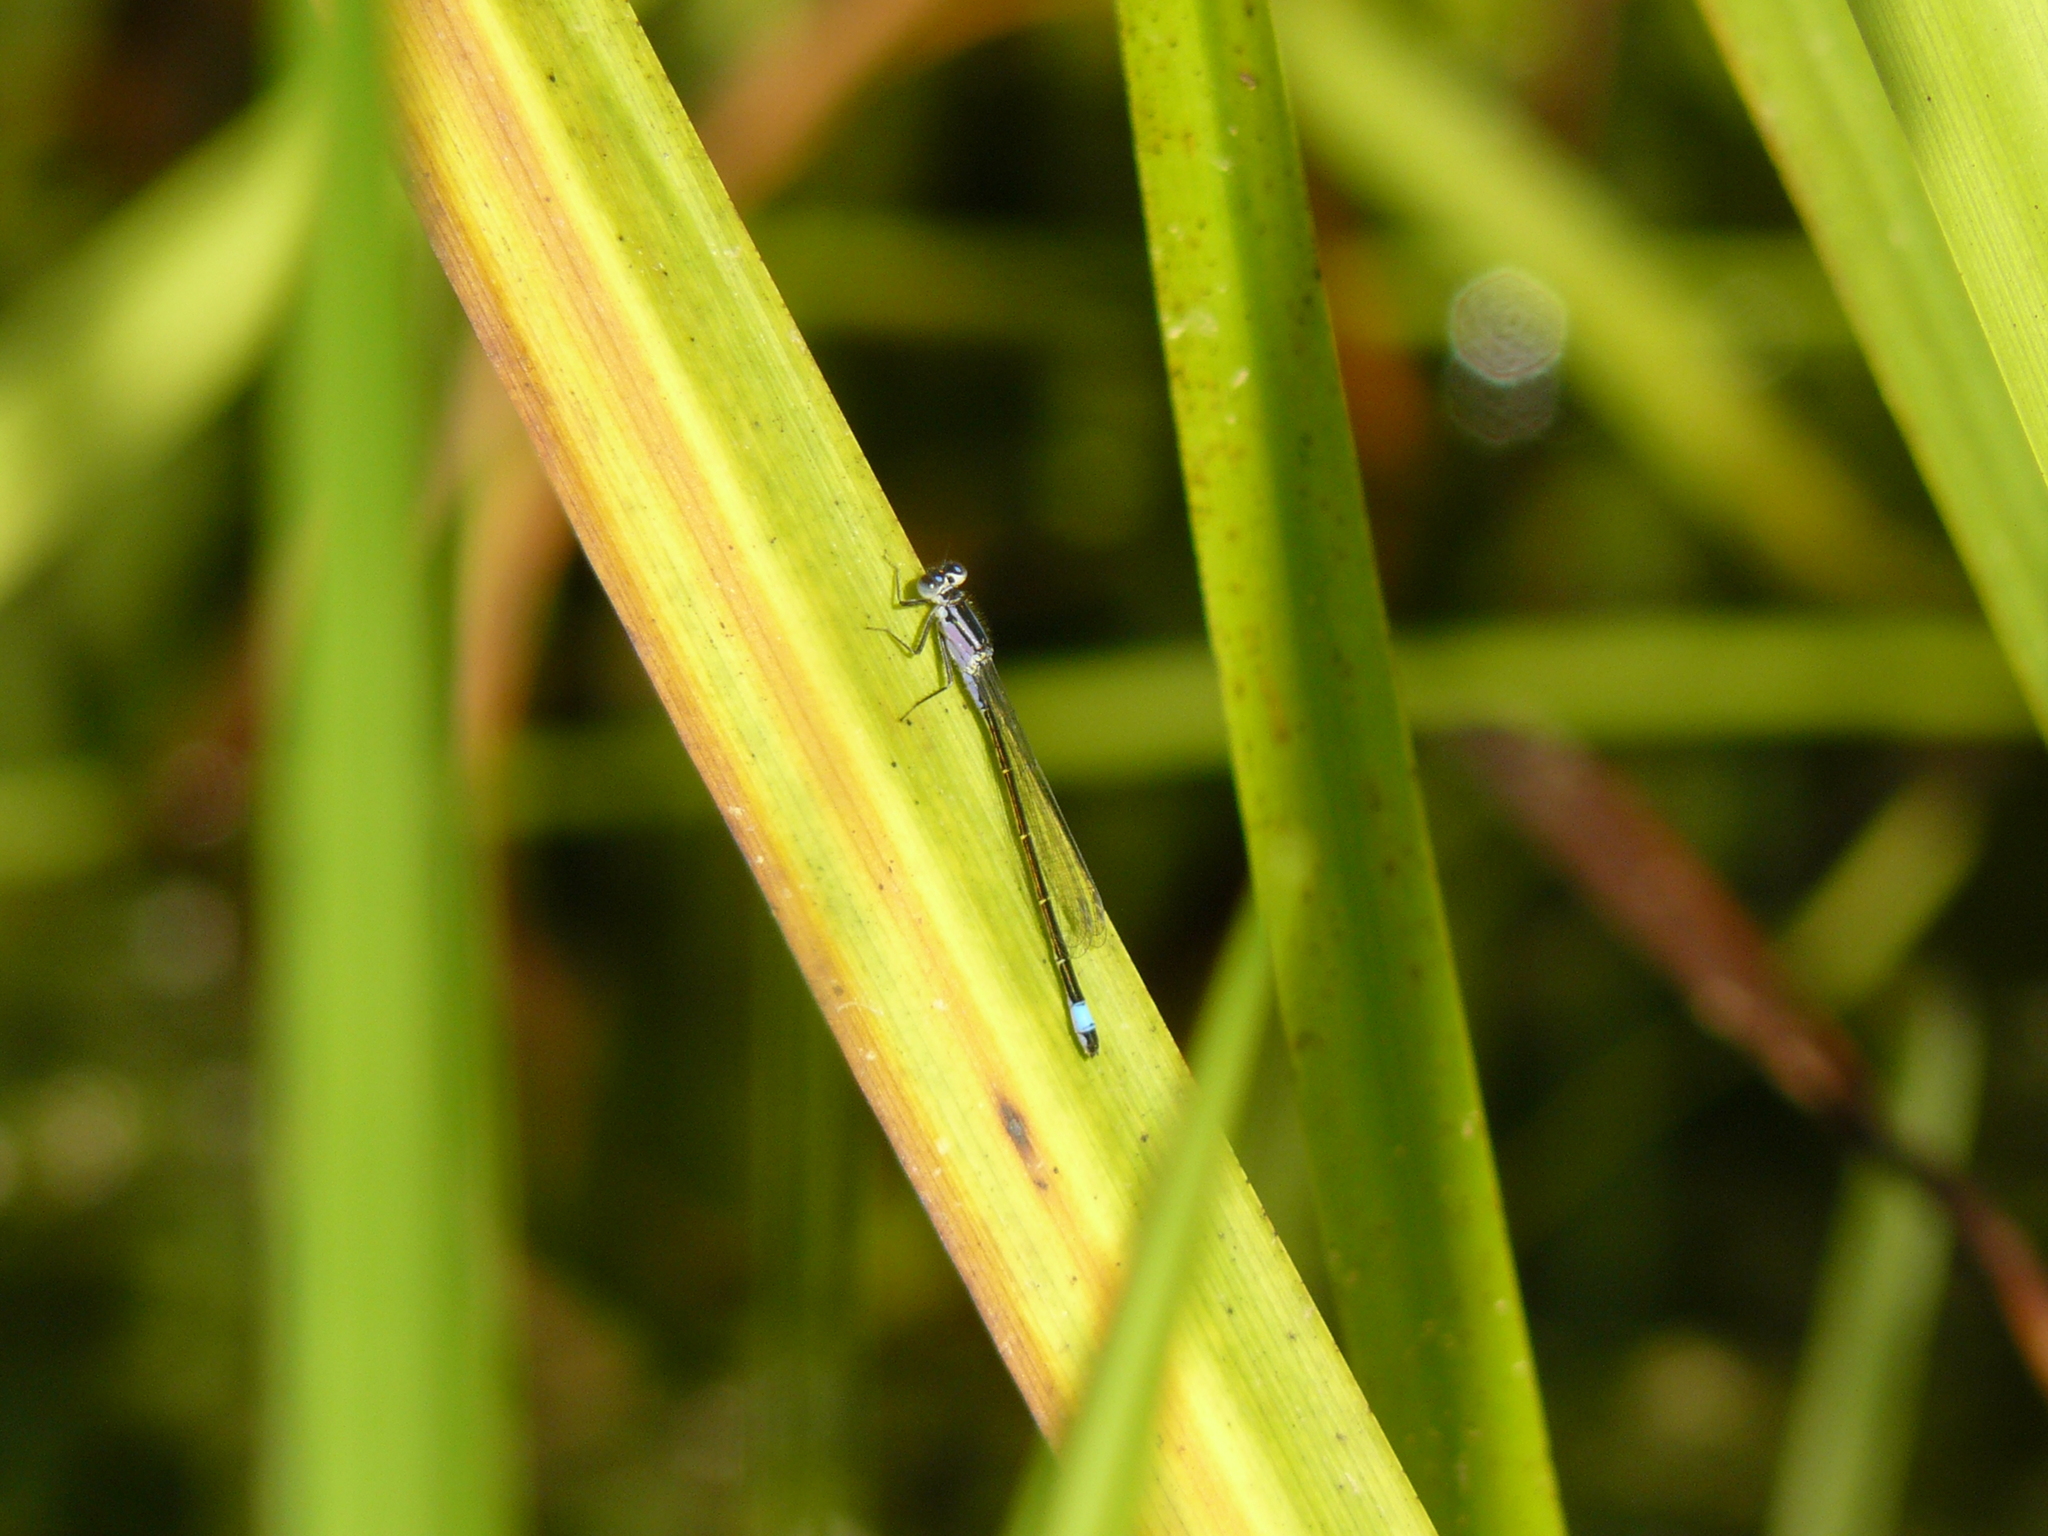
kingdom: Animalia
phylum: Arthropoda
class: Insecta
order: Odonata
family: Coenagrionidae
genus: Ischnura
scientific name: Ischnura elegans
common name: Blue-tailed damselfly
